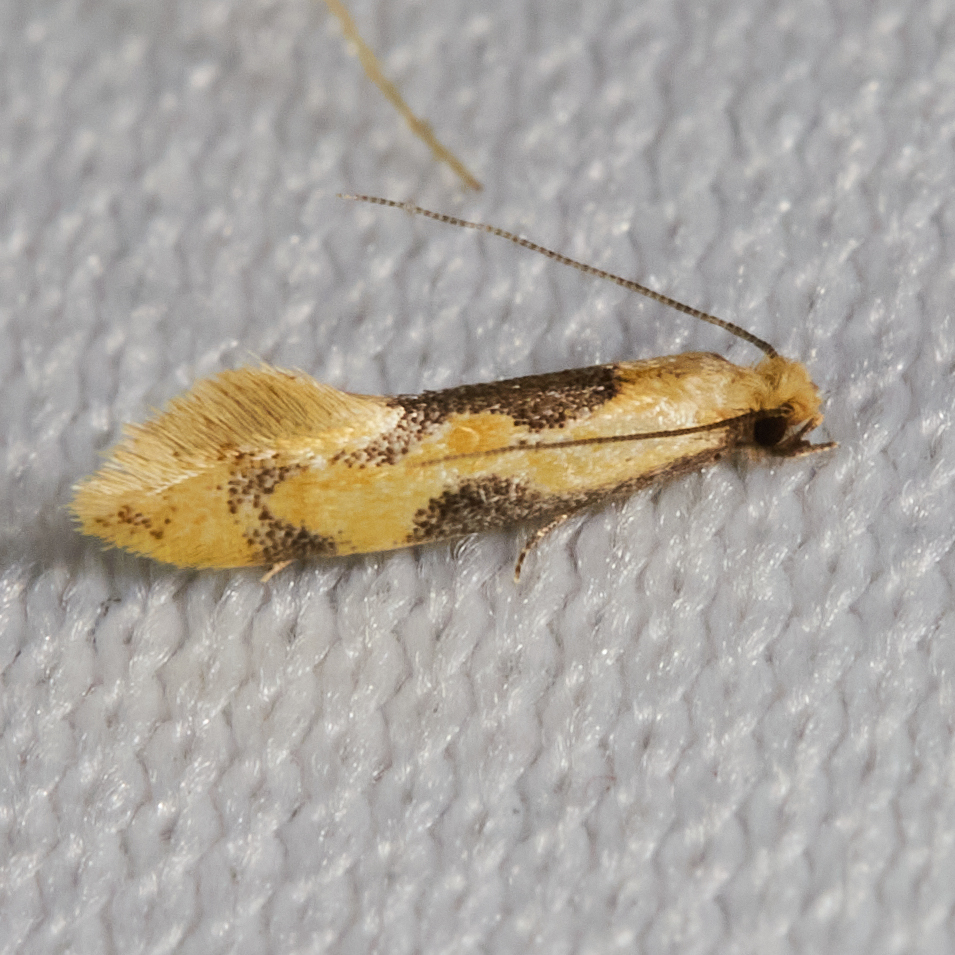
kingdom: Animalia
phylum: Arthropoda
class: Insecta
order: Lepidoptera
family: Meessiidae
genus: Hybroma
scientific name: Hybroma servulella
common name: Yellow wave moth
